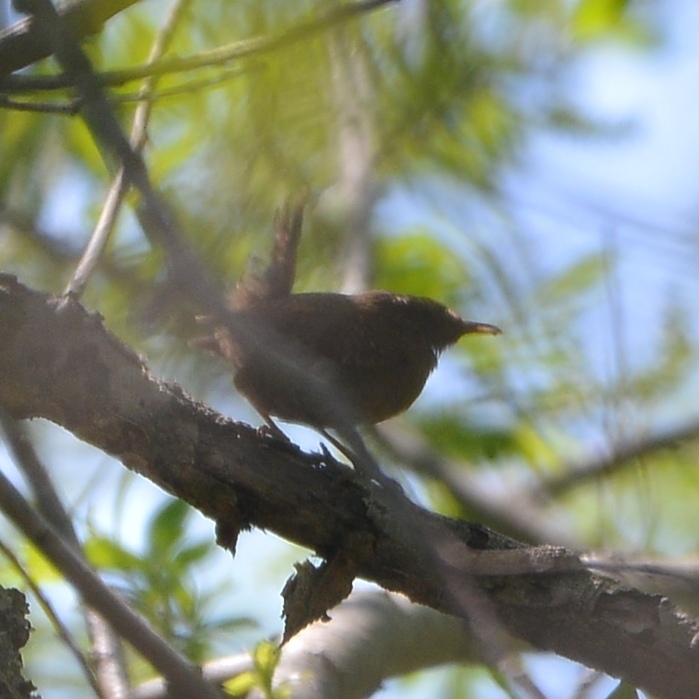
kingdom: Animalia
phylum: Chordata
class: Aves
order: Passeriformes
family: Troglodytidae
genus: Troglodytes
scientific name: Troglodytes troglodytes
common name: Eurasian wren
